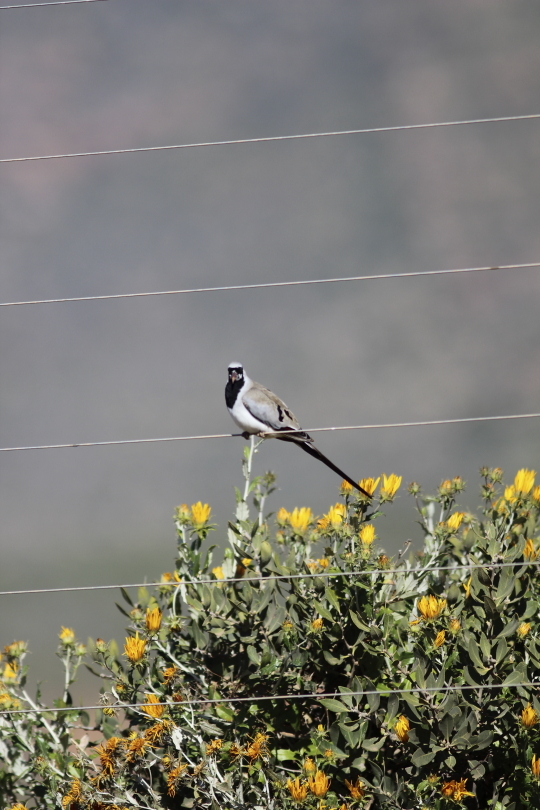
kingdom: Animalia
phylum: Chordata
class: Aves
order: Columbiformes
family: Columbidae
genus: Oena
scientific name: Oena capensis
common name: Namaqua dove
